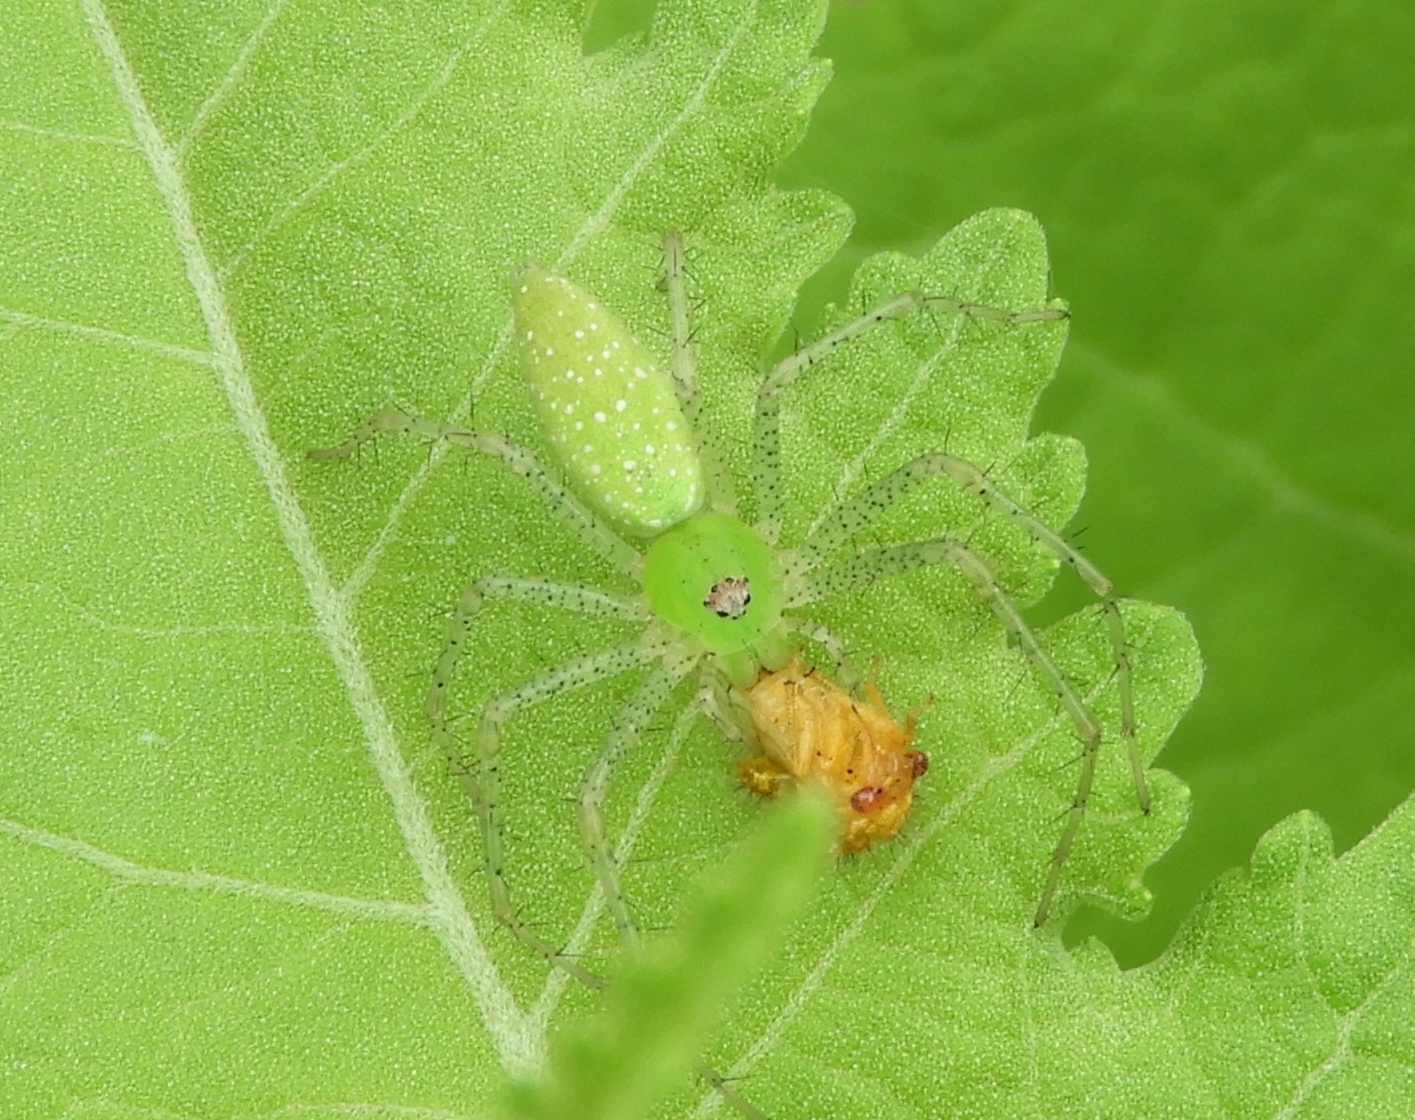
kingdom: Animalia
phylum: Arthropoda
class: Arachnida
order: Araneae
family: Oxyopidae
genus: Peucetia
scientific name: Peucetia
